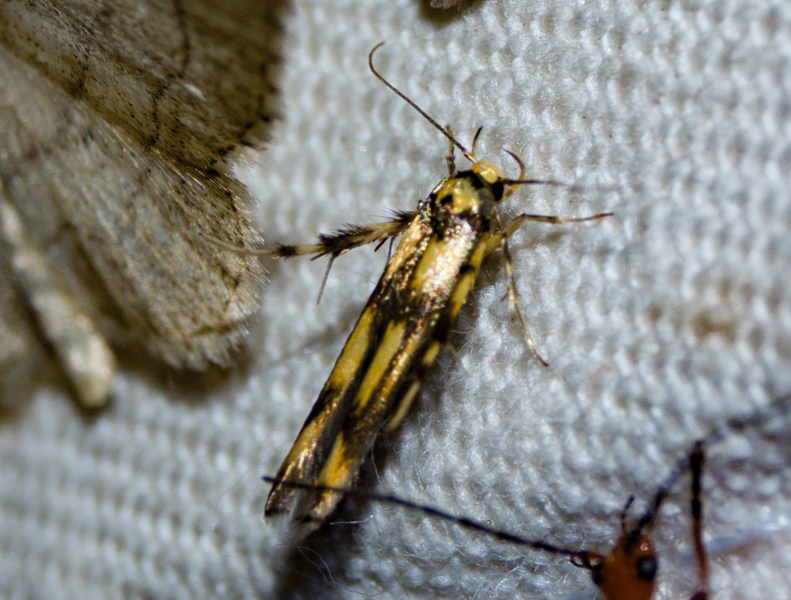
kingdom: Animalia
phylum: Arthropoda
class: Insecta
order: Lepidoptera
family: Stathmopodidae
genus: Stathmopoda
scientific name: Stathmopoda pedella
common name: Alder signal
